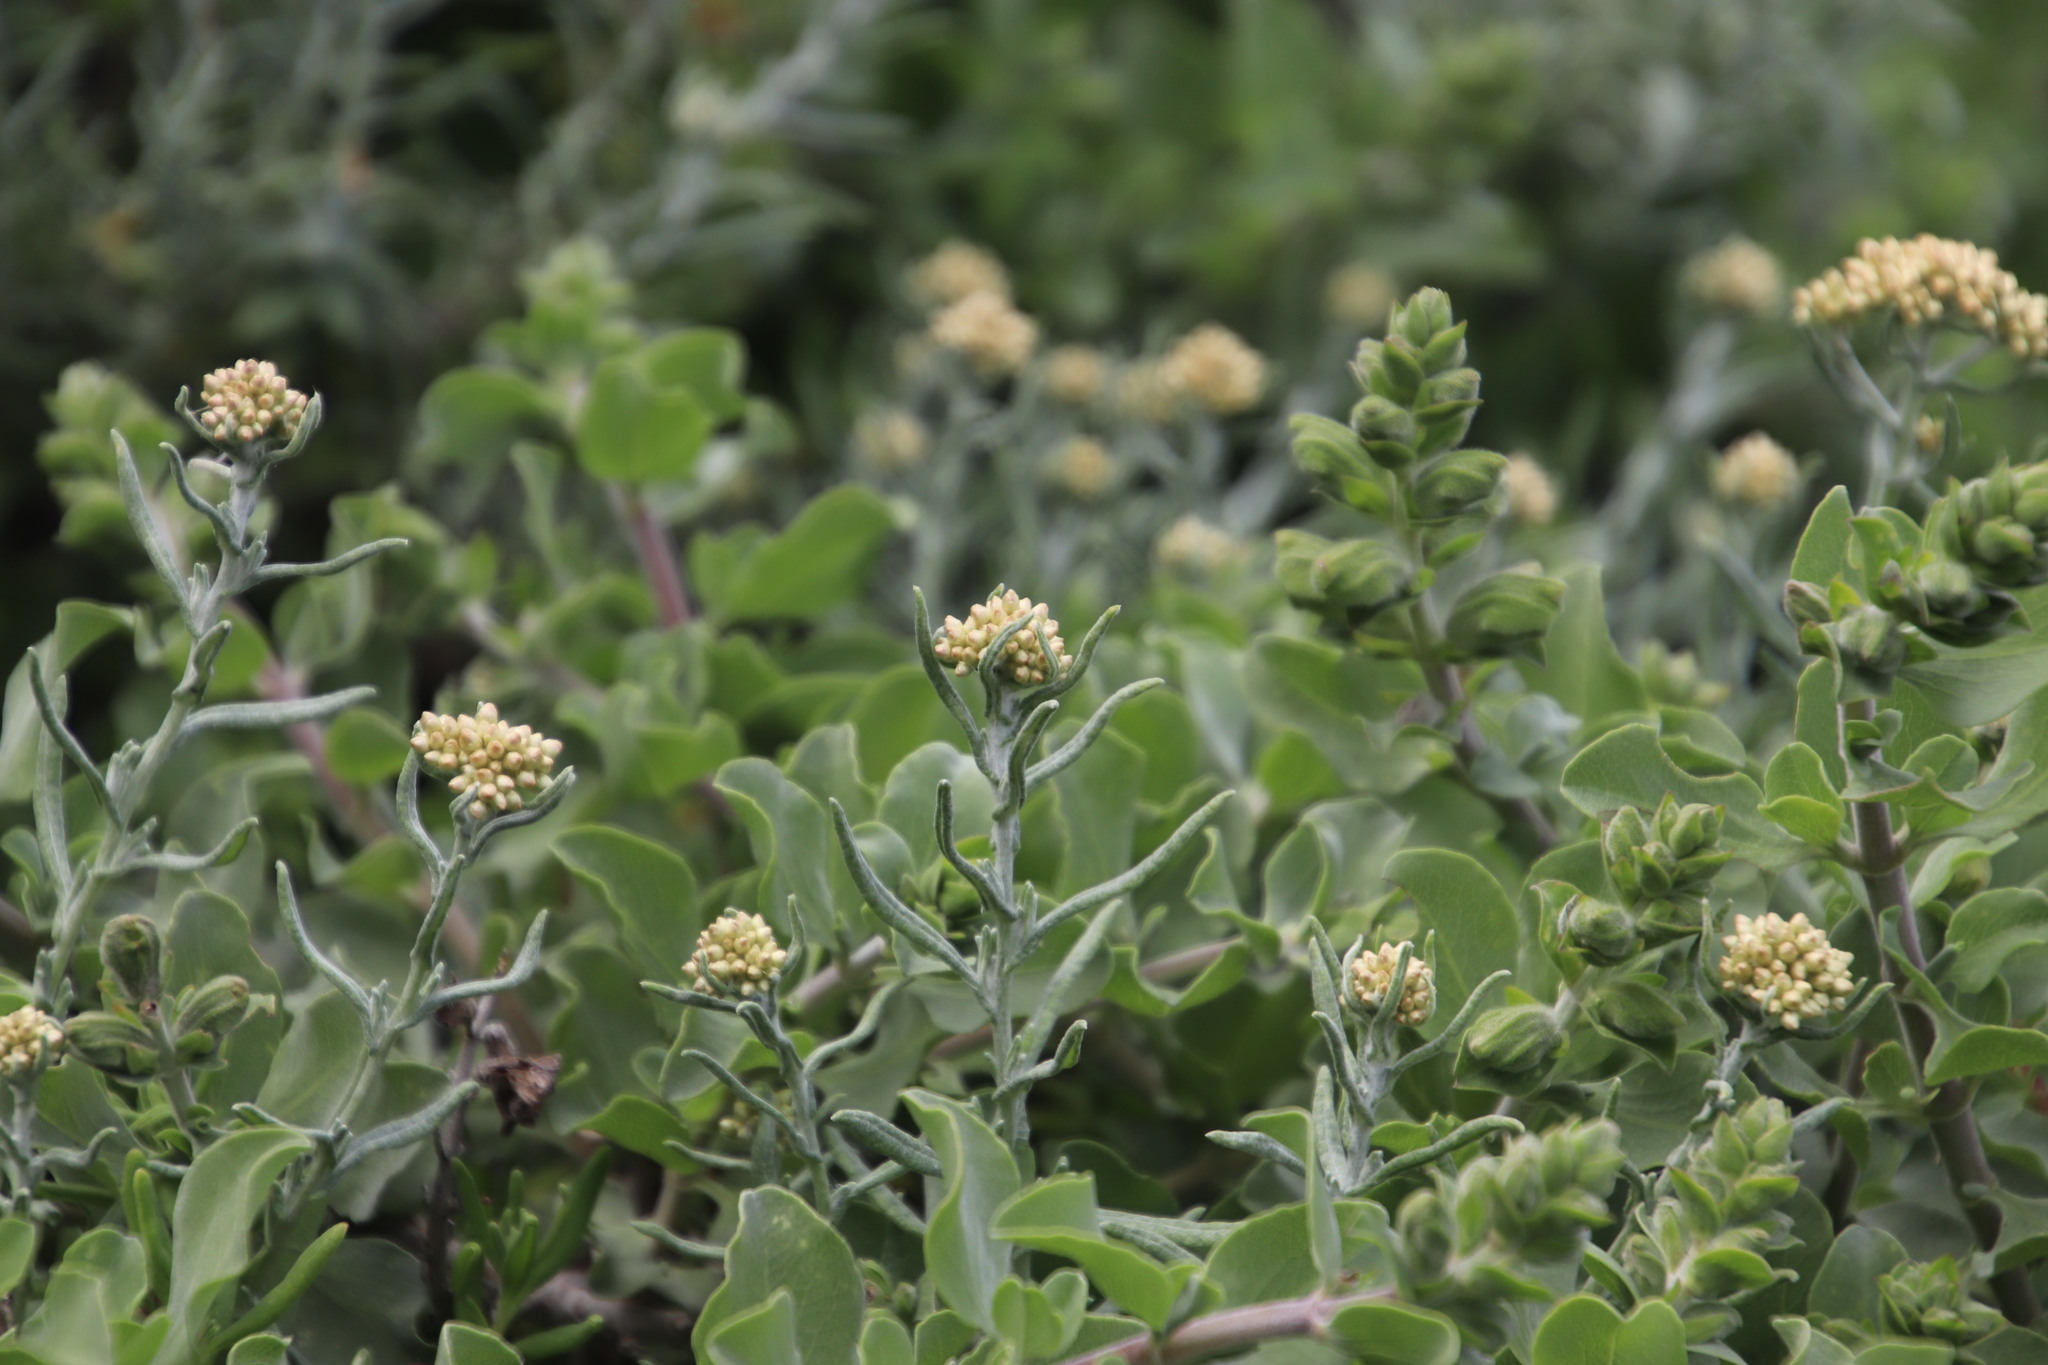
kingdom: Plantae
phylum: Tracheophyta
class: Magnoliopsida
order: Asterales
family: Asteraceae
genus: Helichrysum
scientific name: Helichrysum revolutum
